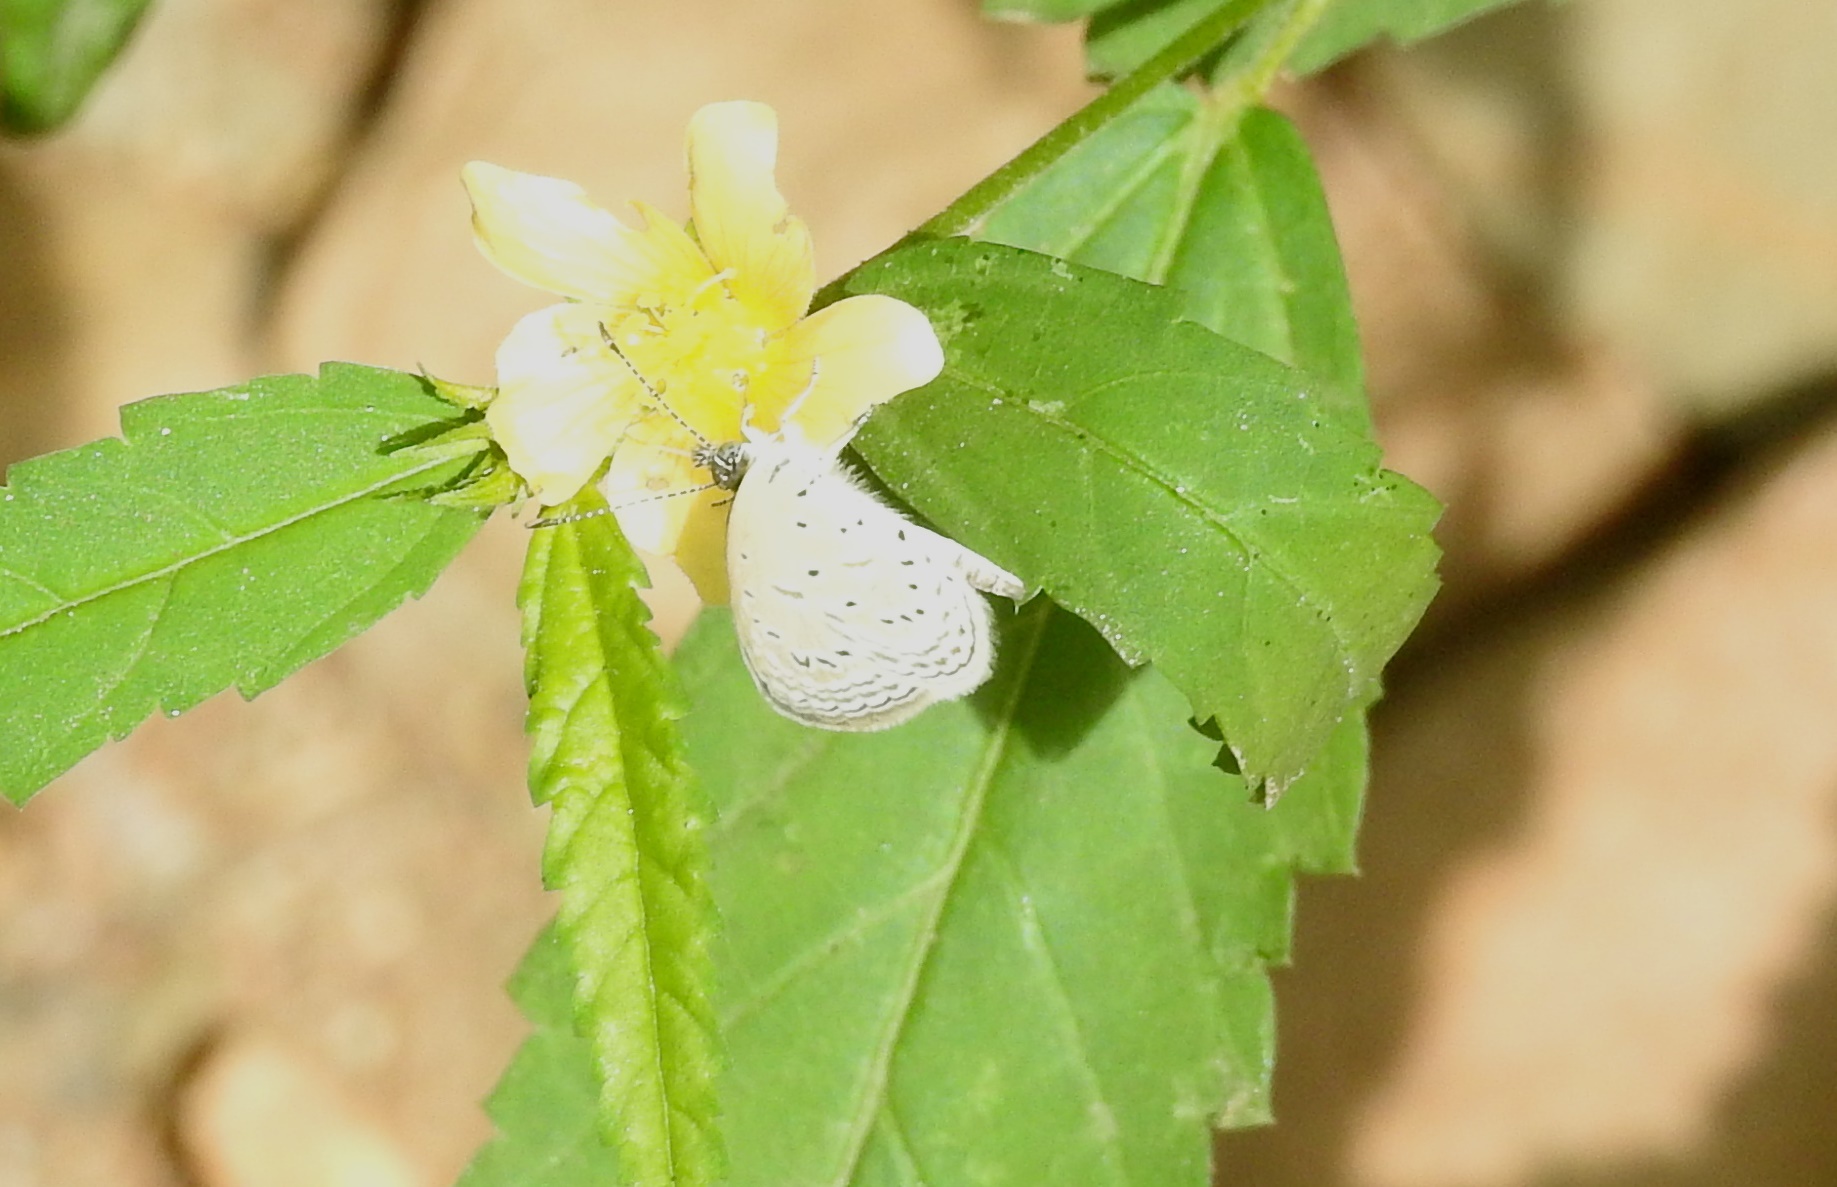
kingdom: Animalia
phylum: Arthropoda
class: Insecta
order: Lepidoptera
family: Lycaenidae
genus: Zizula
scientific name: Zizula hylax
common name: Gaika blue
